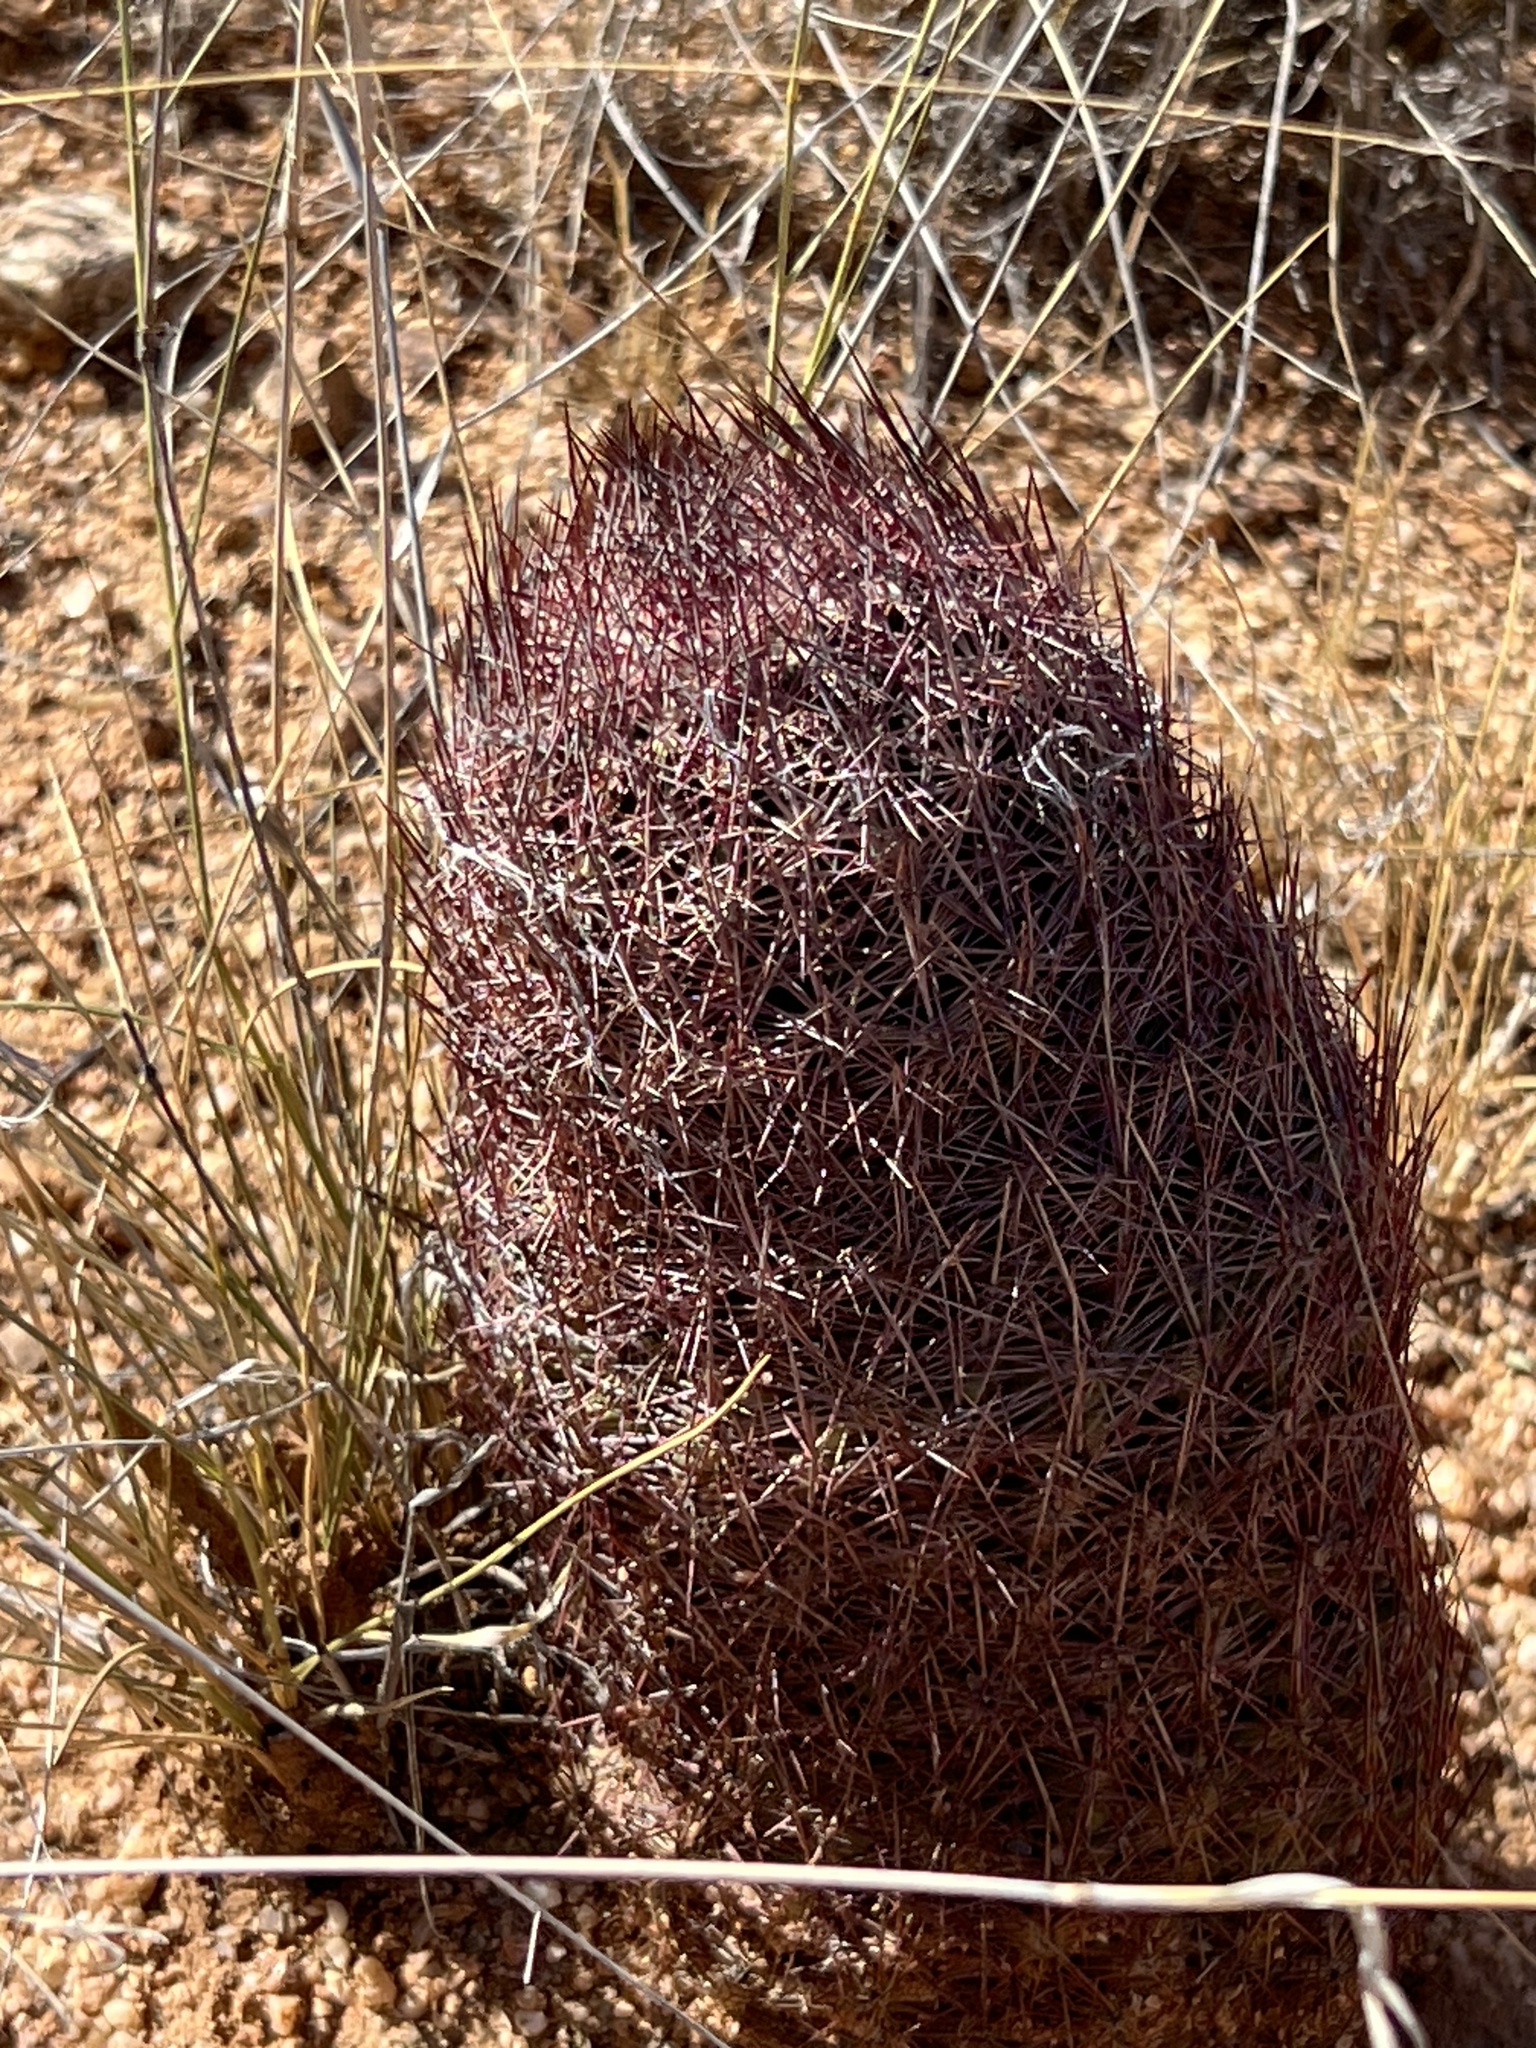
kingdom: Plantae
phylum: Tracheophyta
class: Magnoliopsida
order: Caryophyllales
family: Cactaceae
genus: Sclerocactus
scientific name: Sclerocactus johnsonii
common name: Eight-spine fishhook cactus
